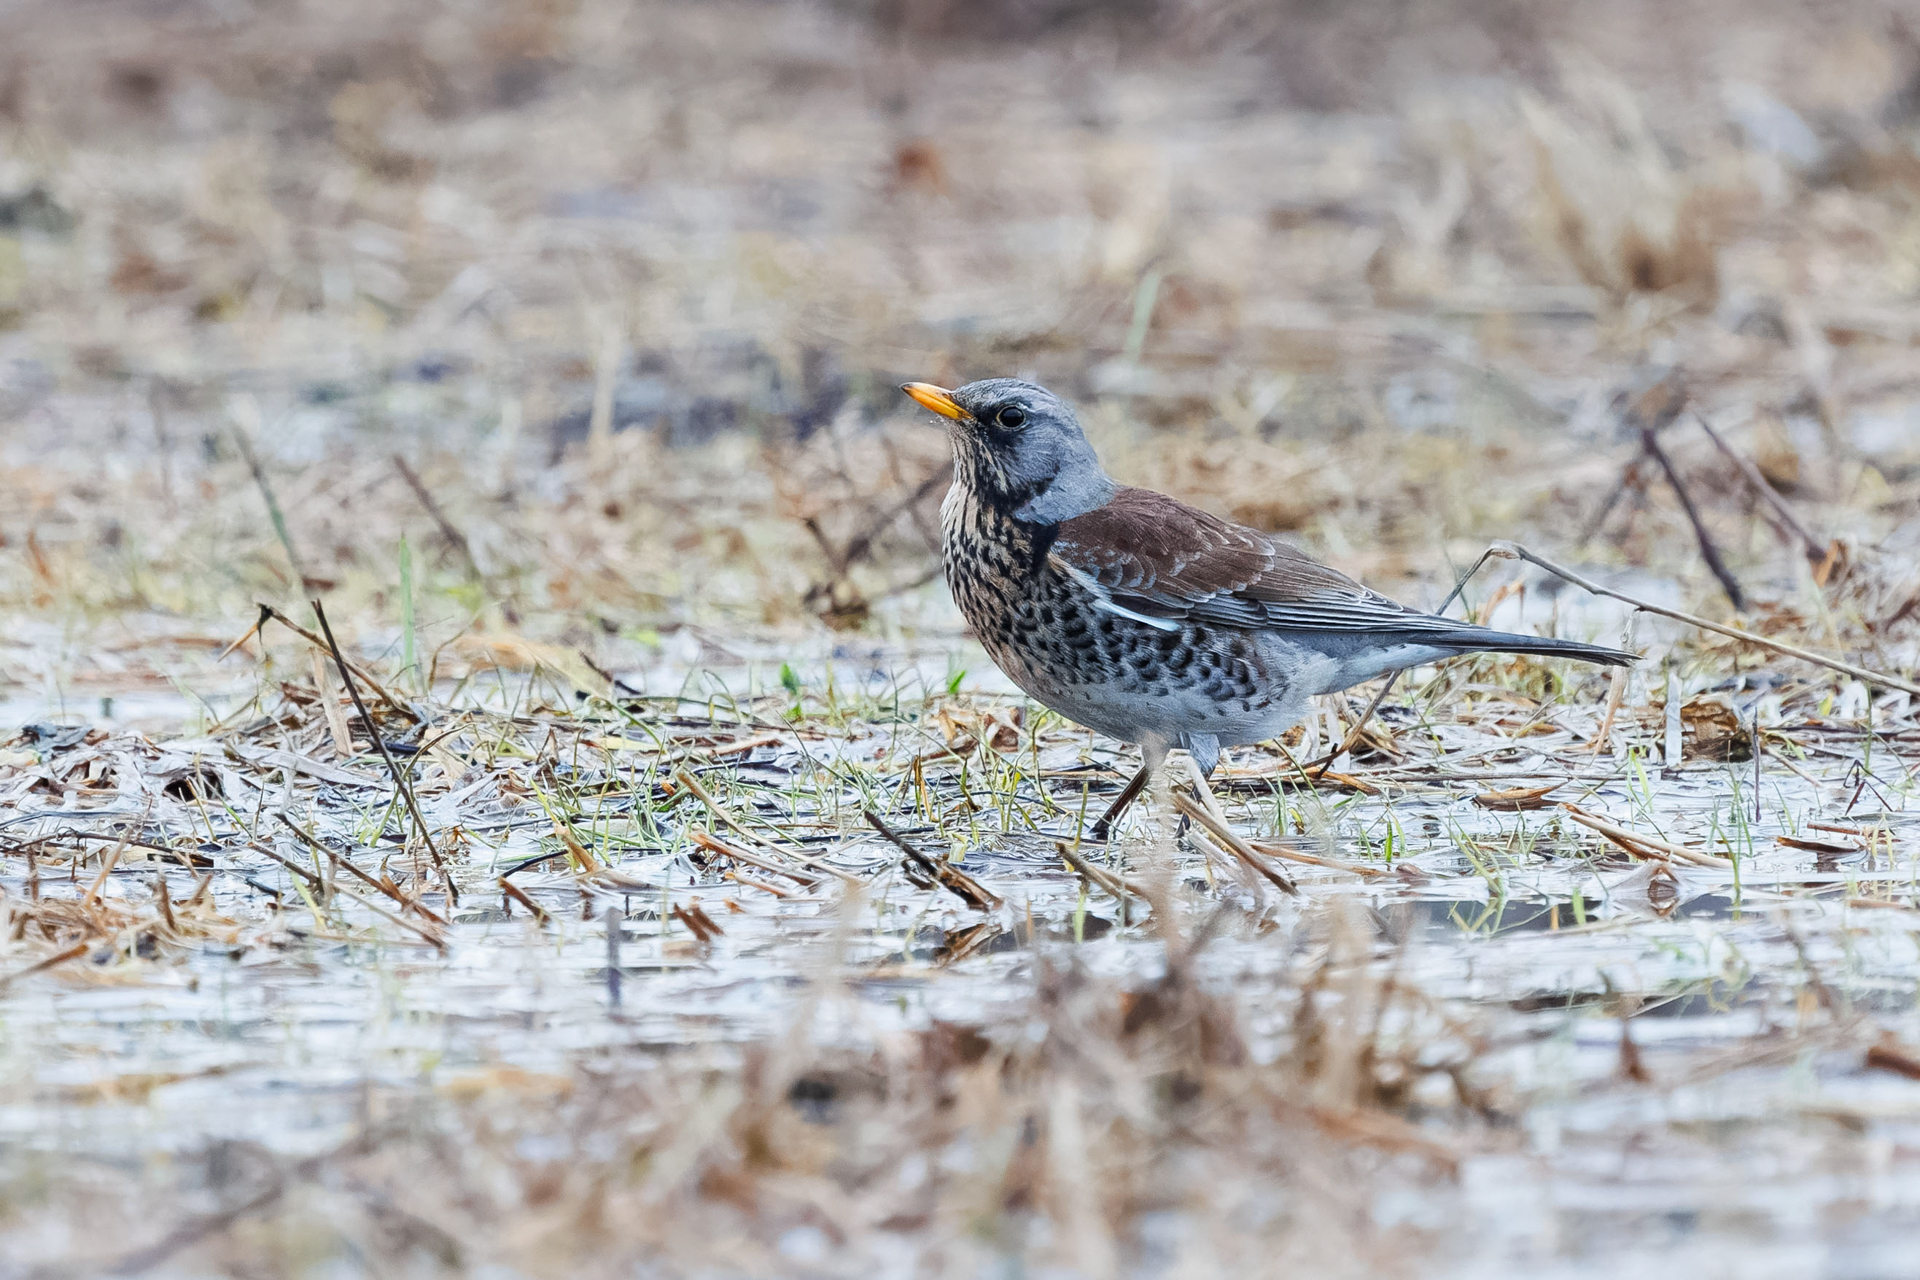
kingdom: Animalia
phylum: Chordata
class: Aves
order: Passeriformes
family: Turdidae
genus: Turdus
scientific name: Turdus pilaris
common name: Fieldfare
